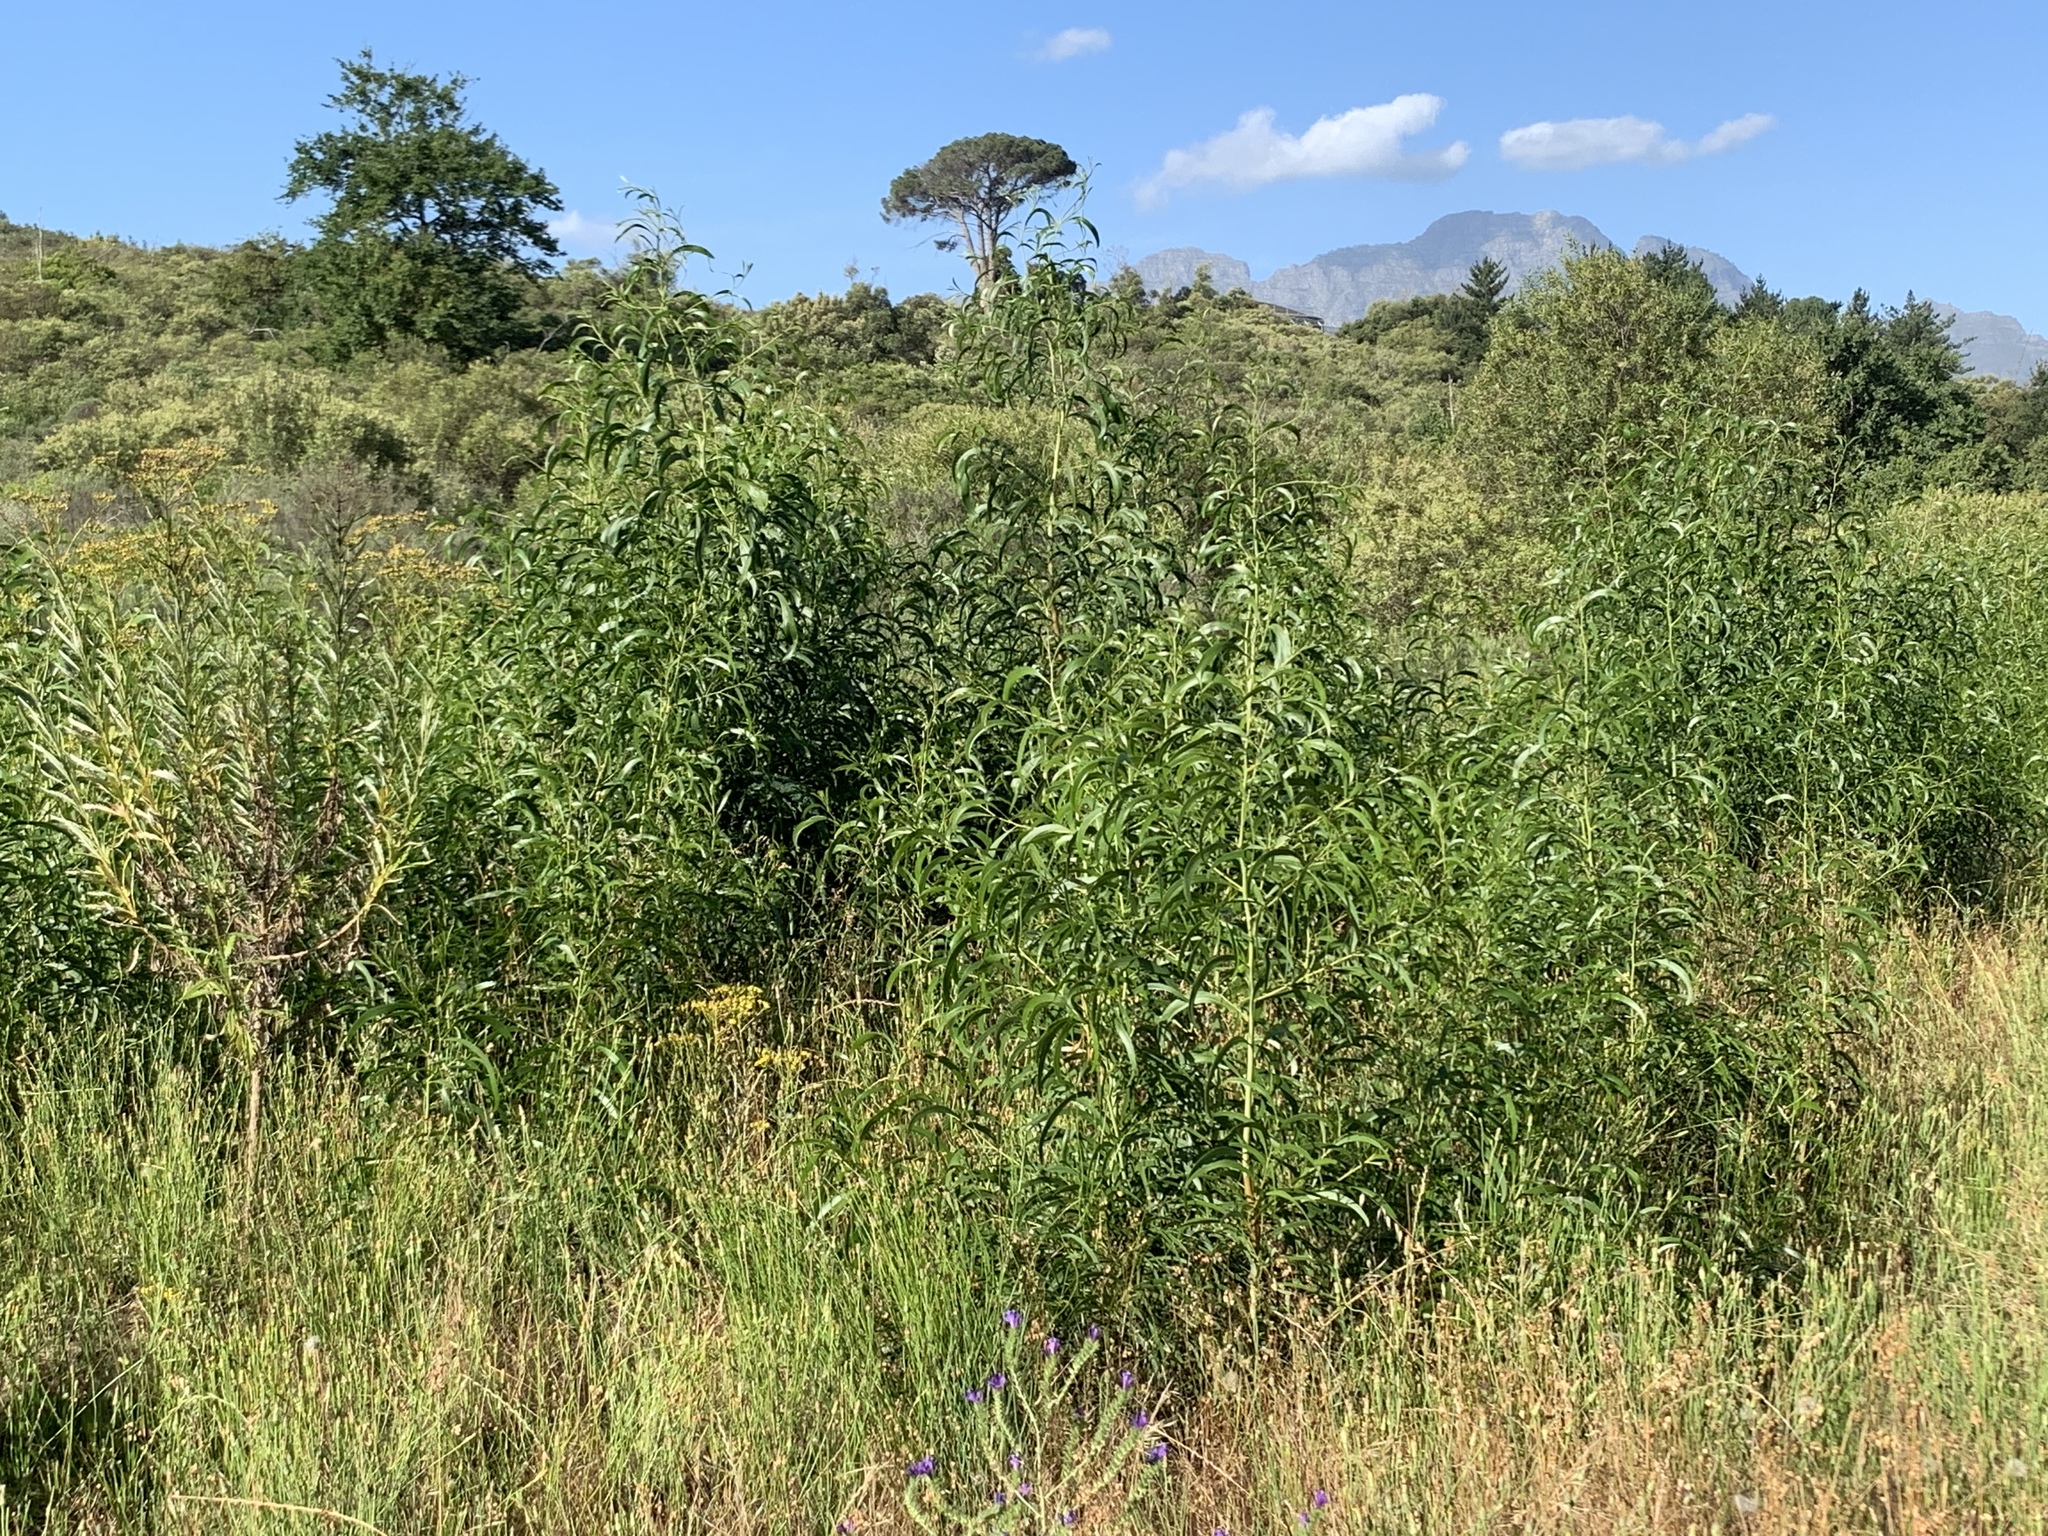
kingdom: Plantae
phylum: Tracheophyta
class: Magnoliopsida
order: Fabales
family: Fabaceae
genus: Acacia
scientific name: Acacia implexa
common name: Black wattle
